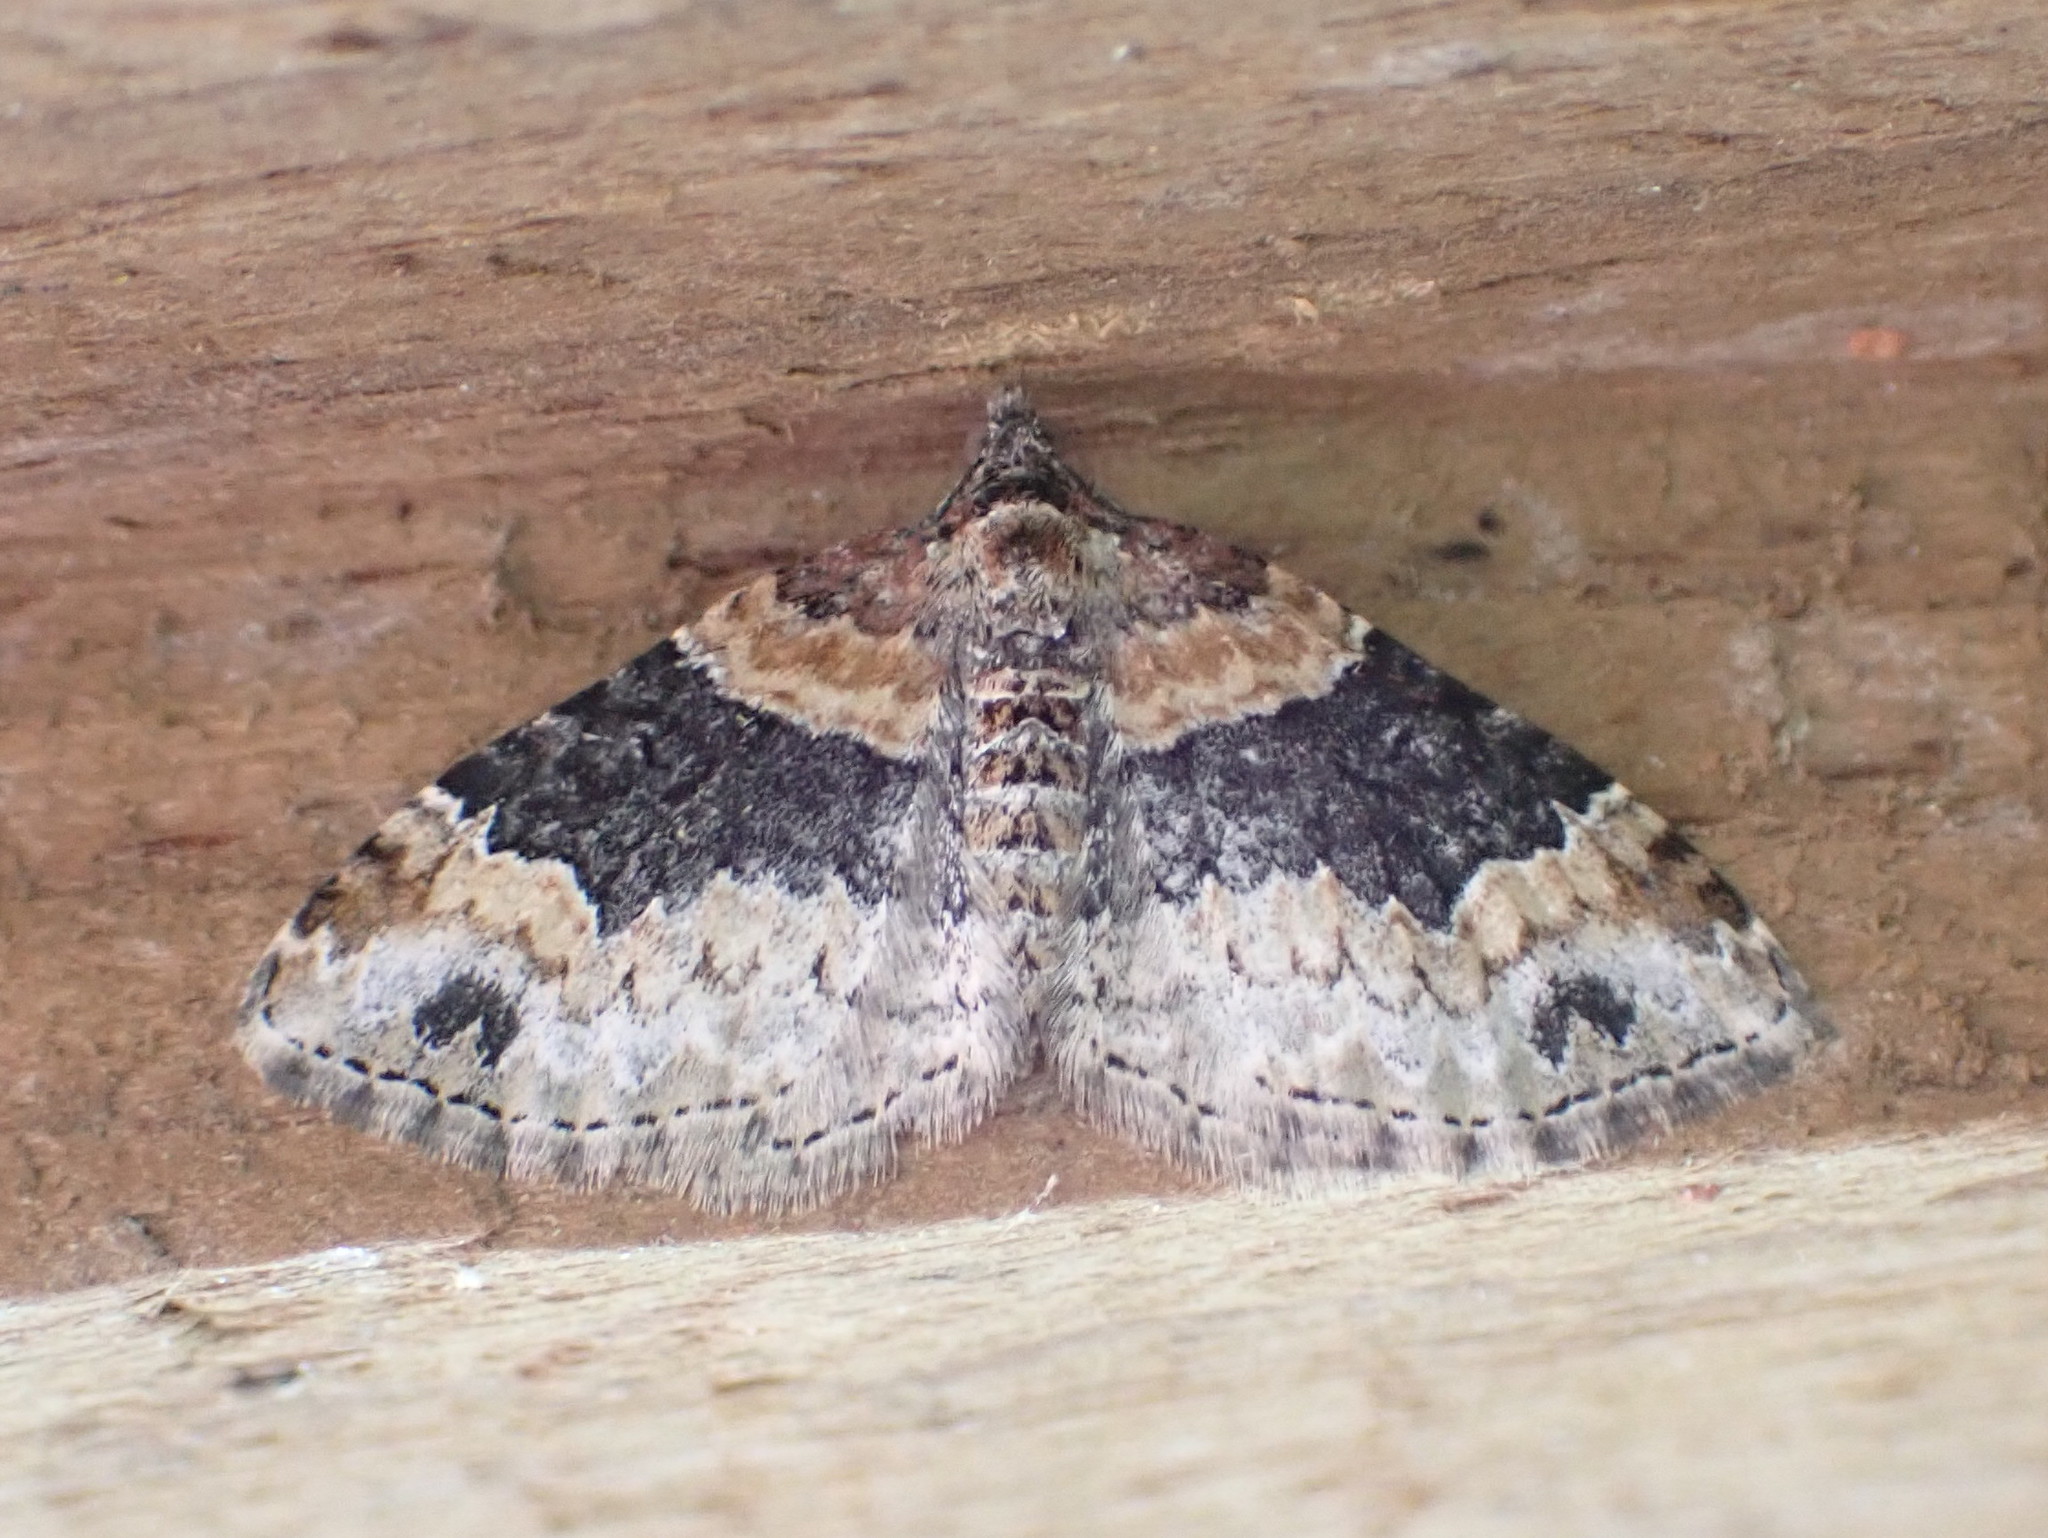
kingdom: Animalia
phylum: Arthropoda
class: Insecta
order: Lepidoptera
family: Geometridae
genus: Xanthorhoe
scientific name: Xanthorhoe ferrugata
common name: Dark-barred twin-spot carpet
